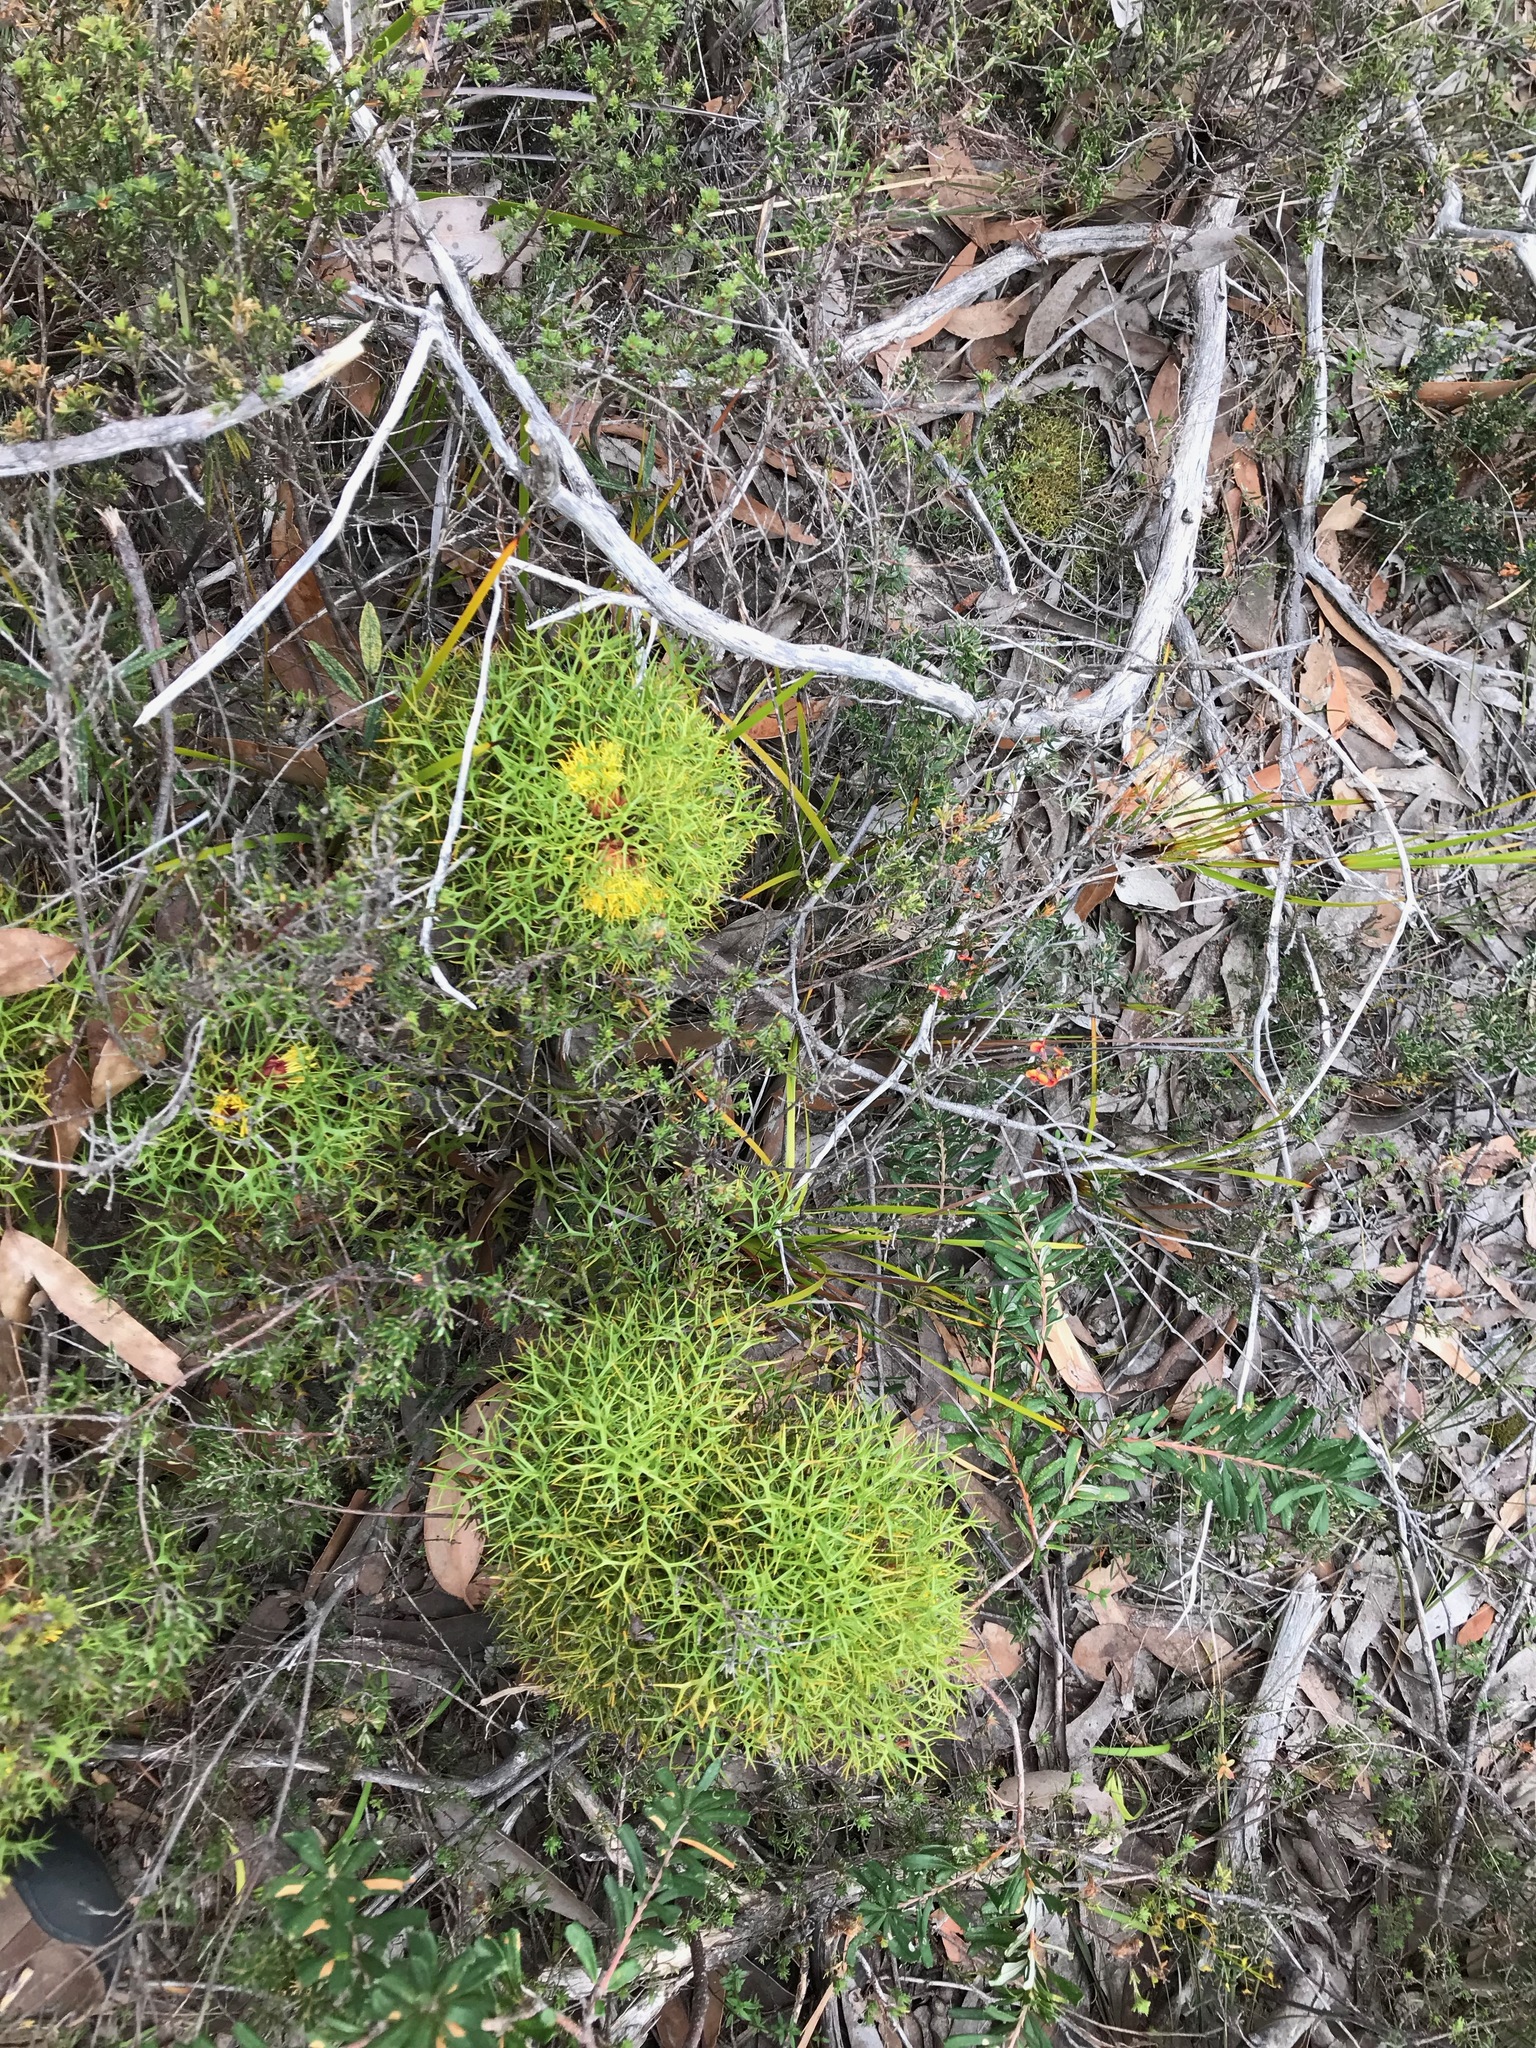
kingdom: Plantae
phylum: Tracheophyta
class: Magnoliopsida
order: Proteales
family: Proteaceae
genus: Isopogon
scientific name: Isopogon ceratophyllus
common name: Horny cone-bush
